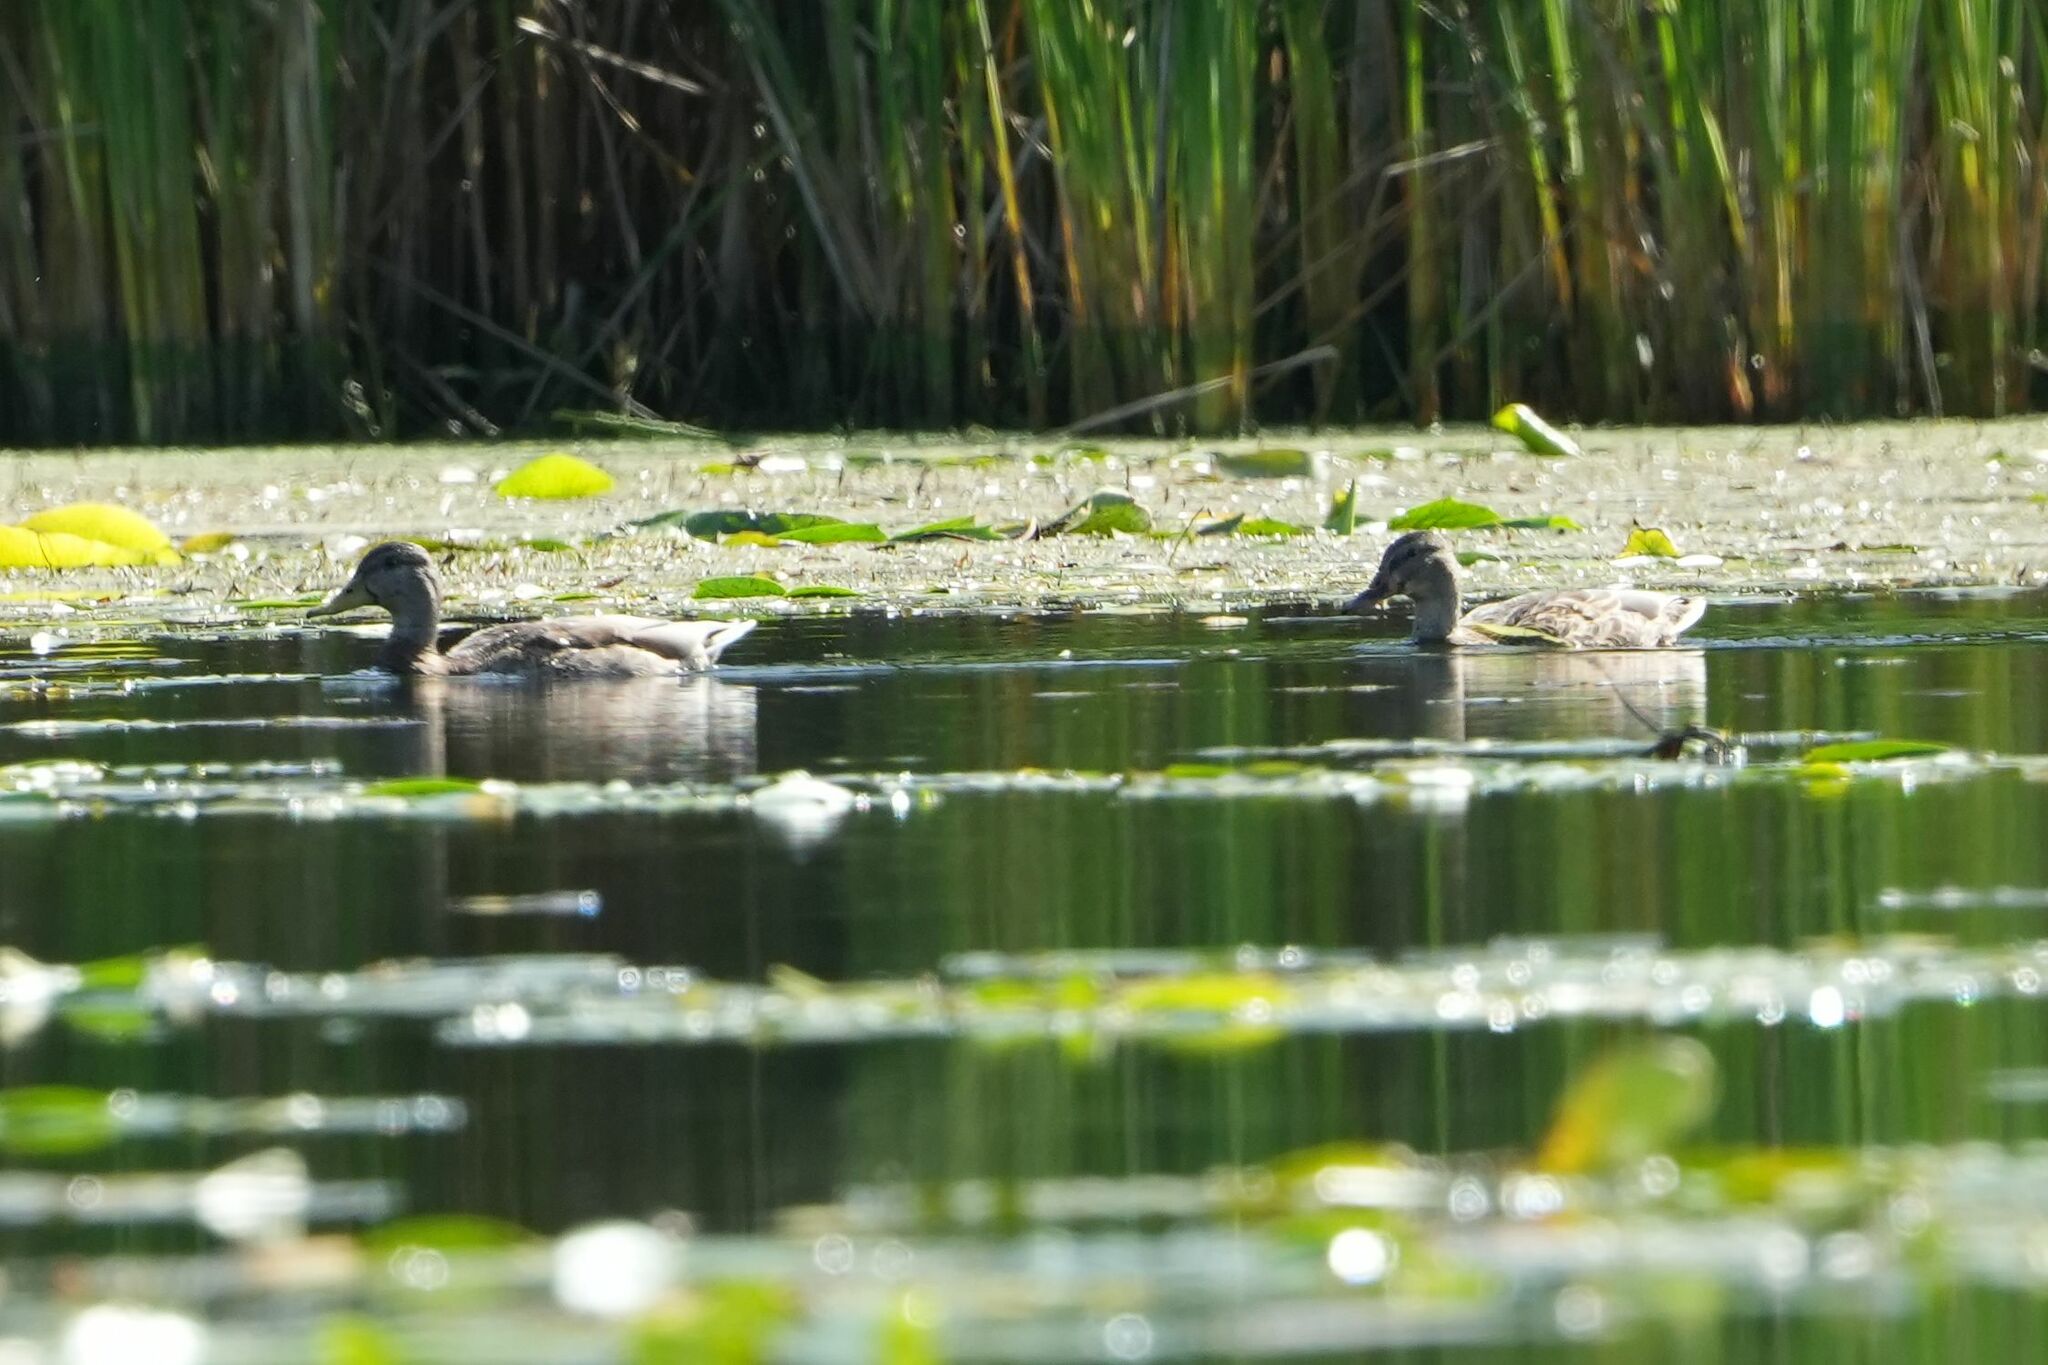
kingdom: Animalia
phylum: Chordata
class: Aves
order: Anseriformes
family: Anatidae
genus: Anas
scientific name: Anas platyrhynchos
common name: Mallard
